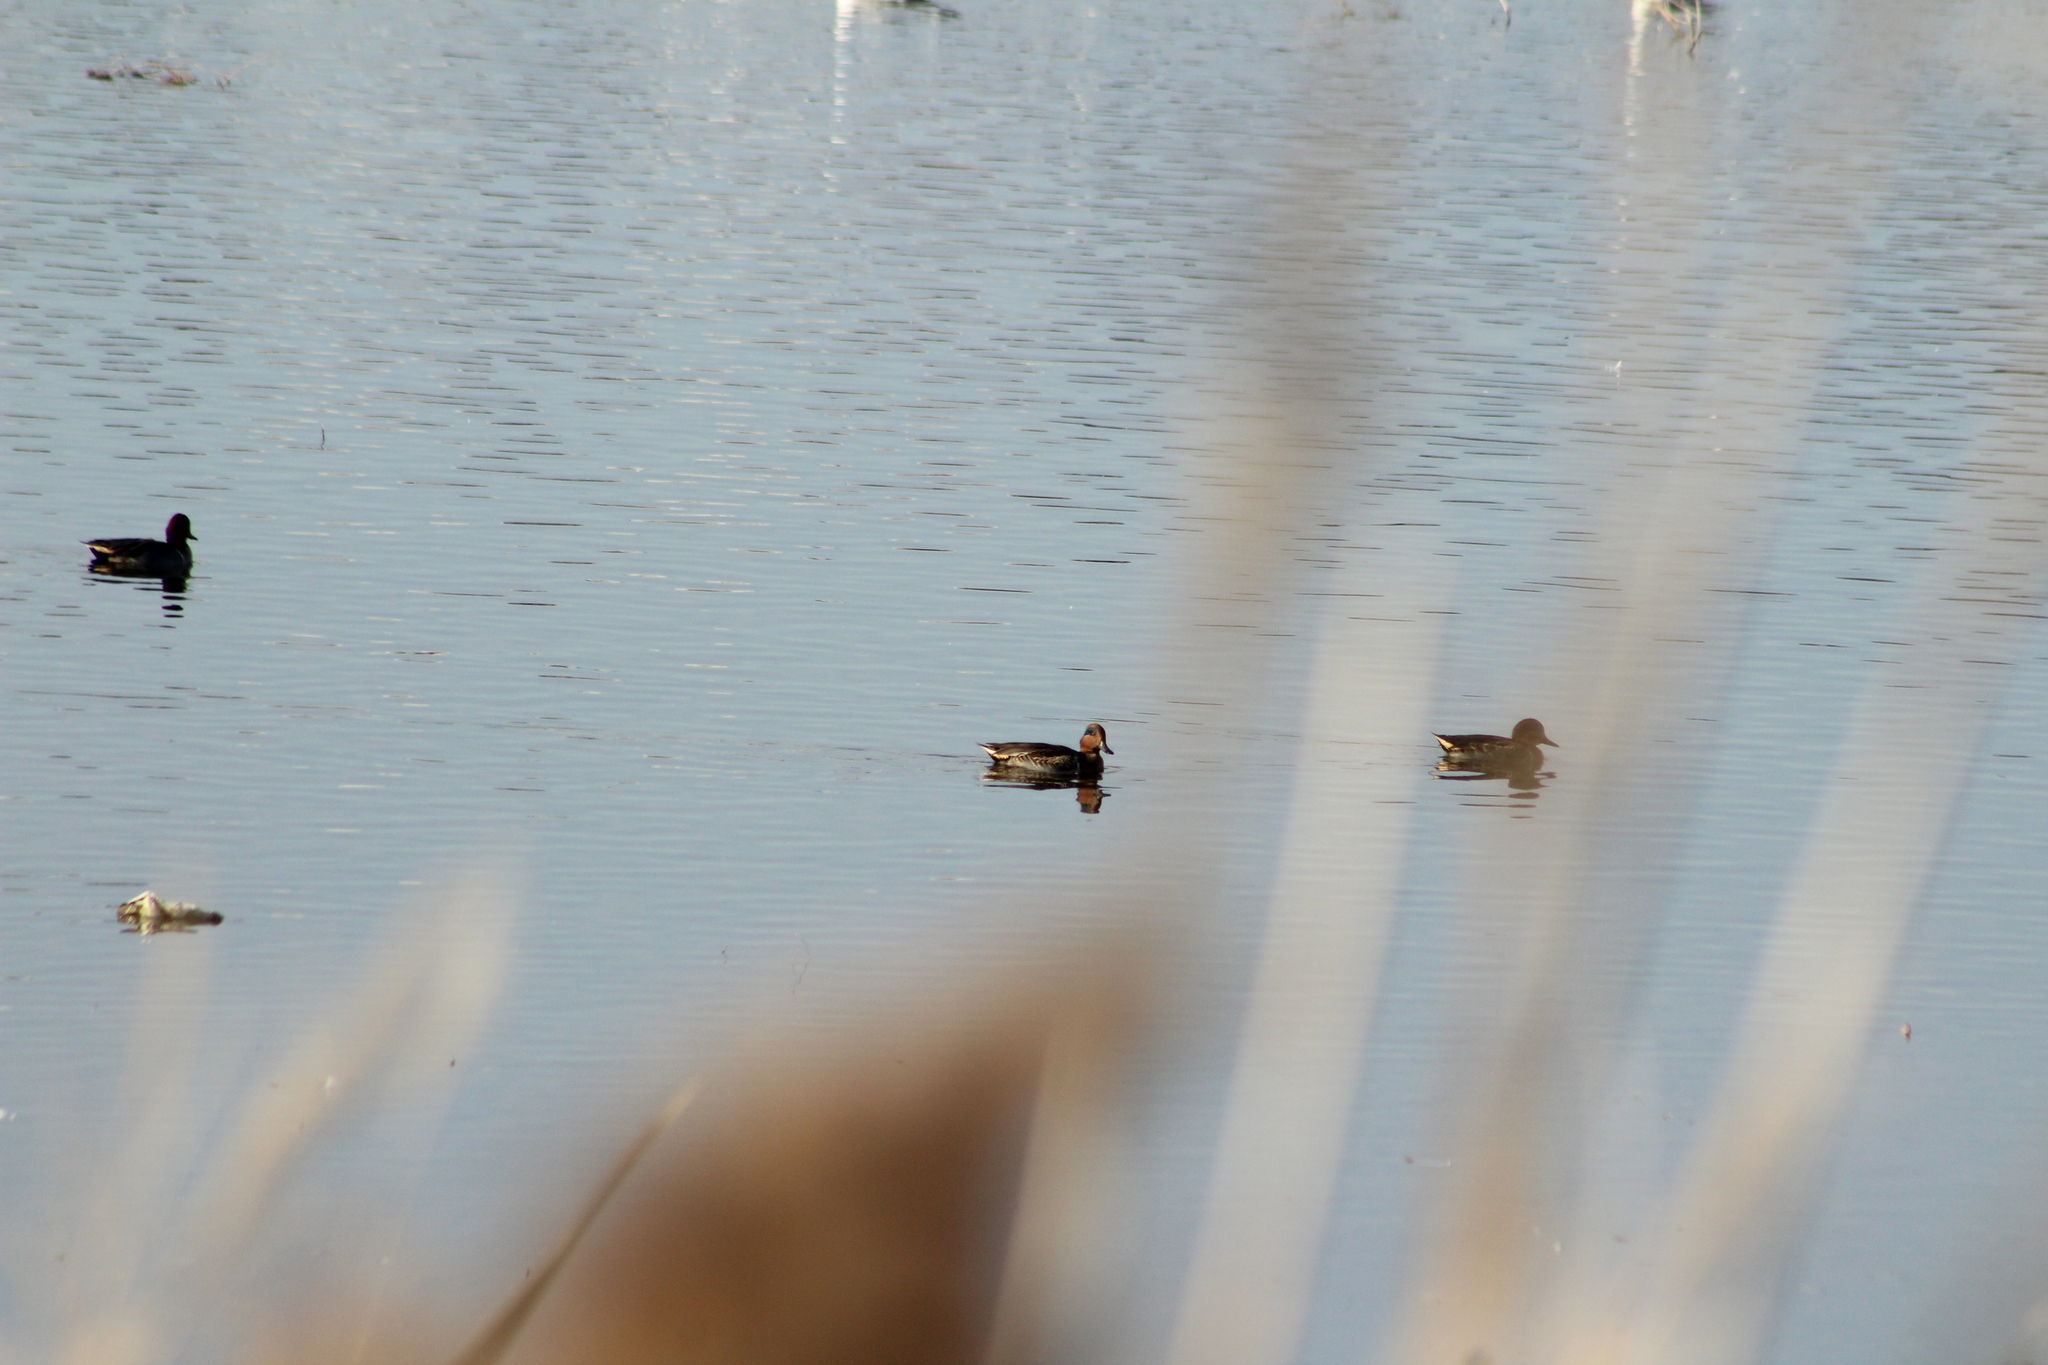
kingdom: Animalia
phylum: Chordata
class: Aves
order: Anseriformes
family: Anatidae
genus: Anas
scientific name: Anas crecca
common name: Eurasian teal
